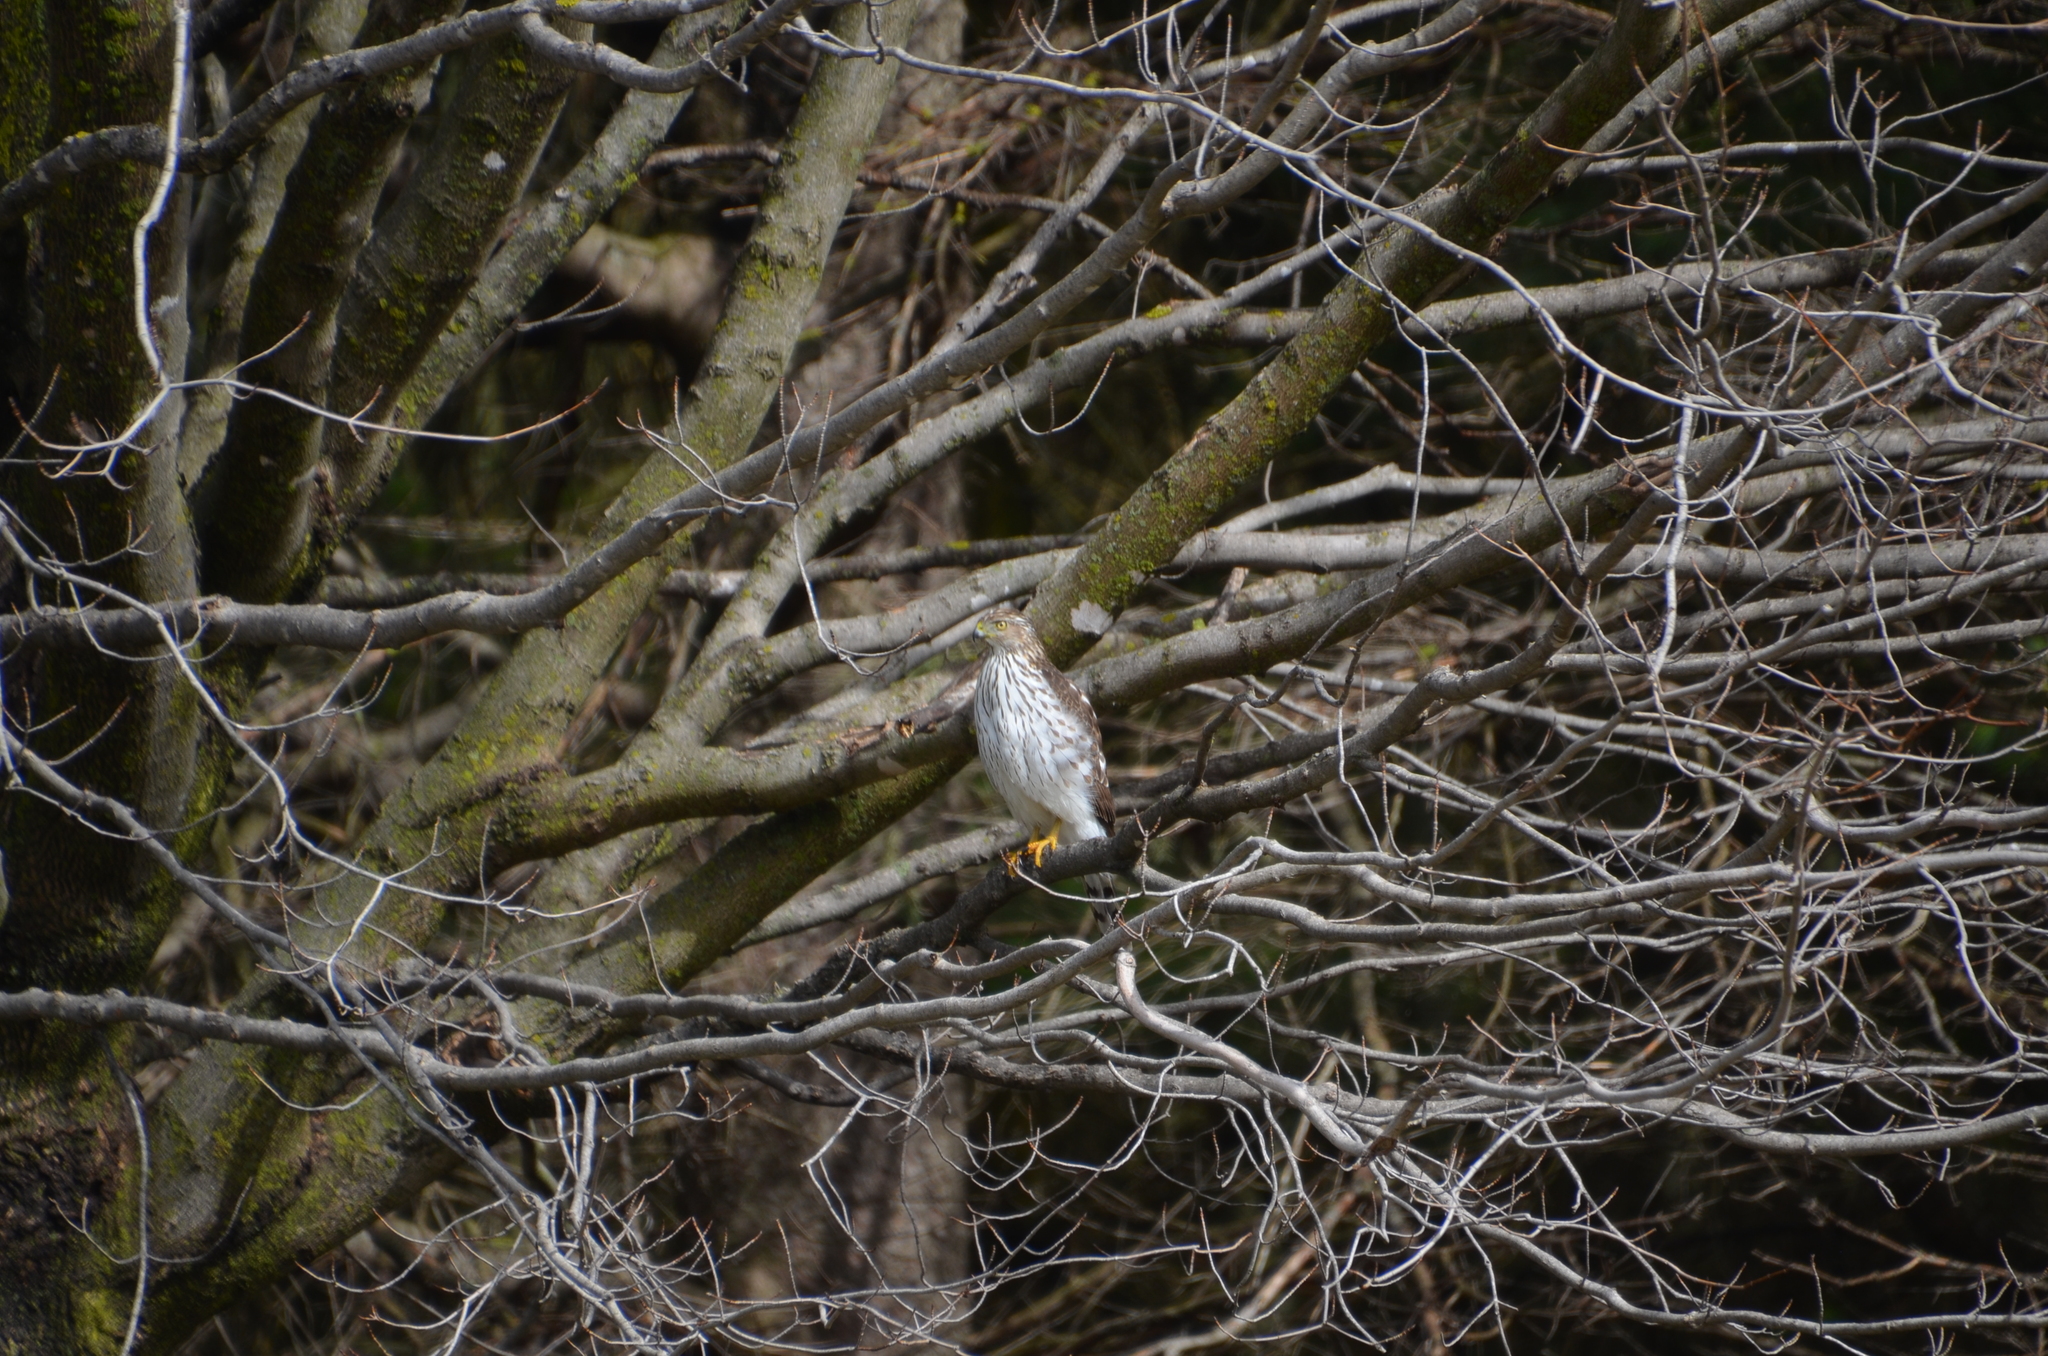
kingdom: Animalia
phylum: Chordata
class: Aves
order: Accipitriformes
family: Accipitridae
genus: Accipiter
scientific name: Accipiter cooperii
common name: Cooper's hawk
